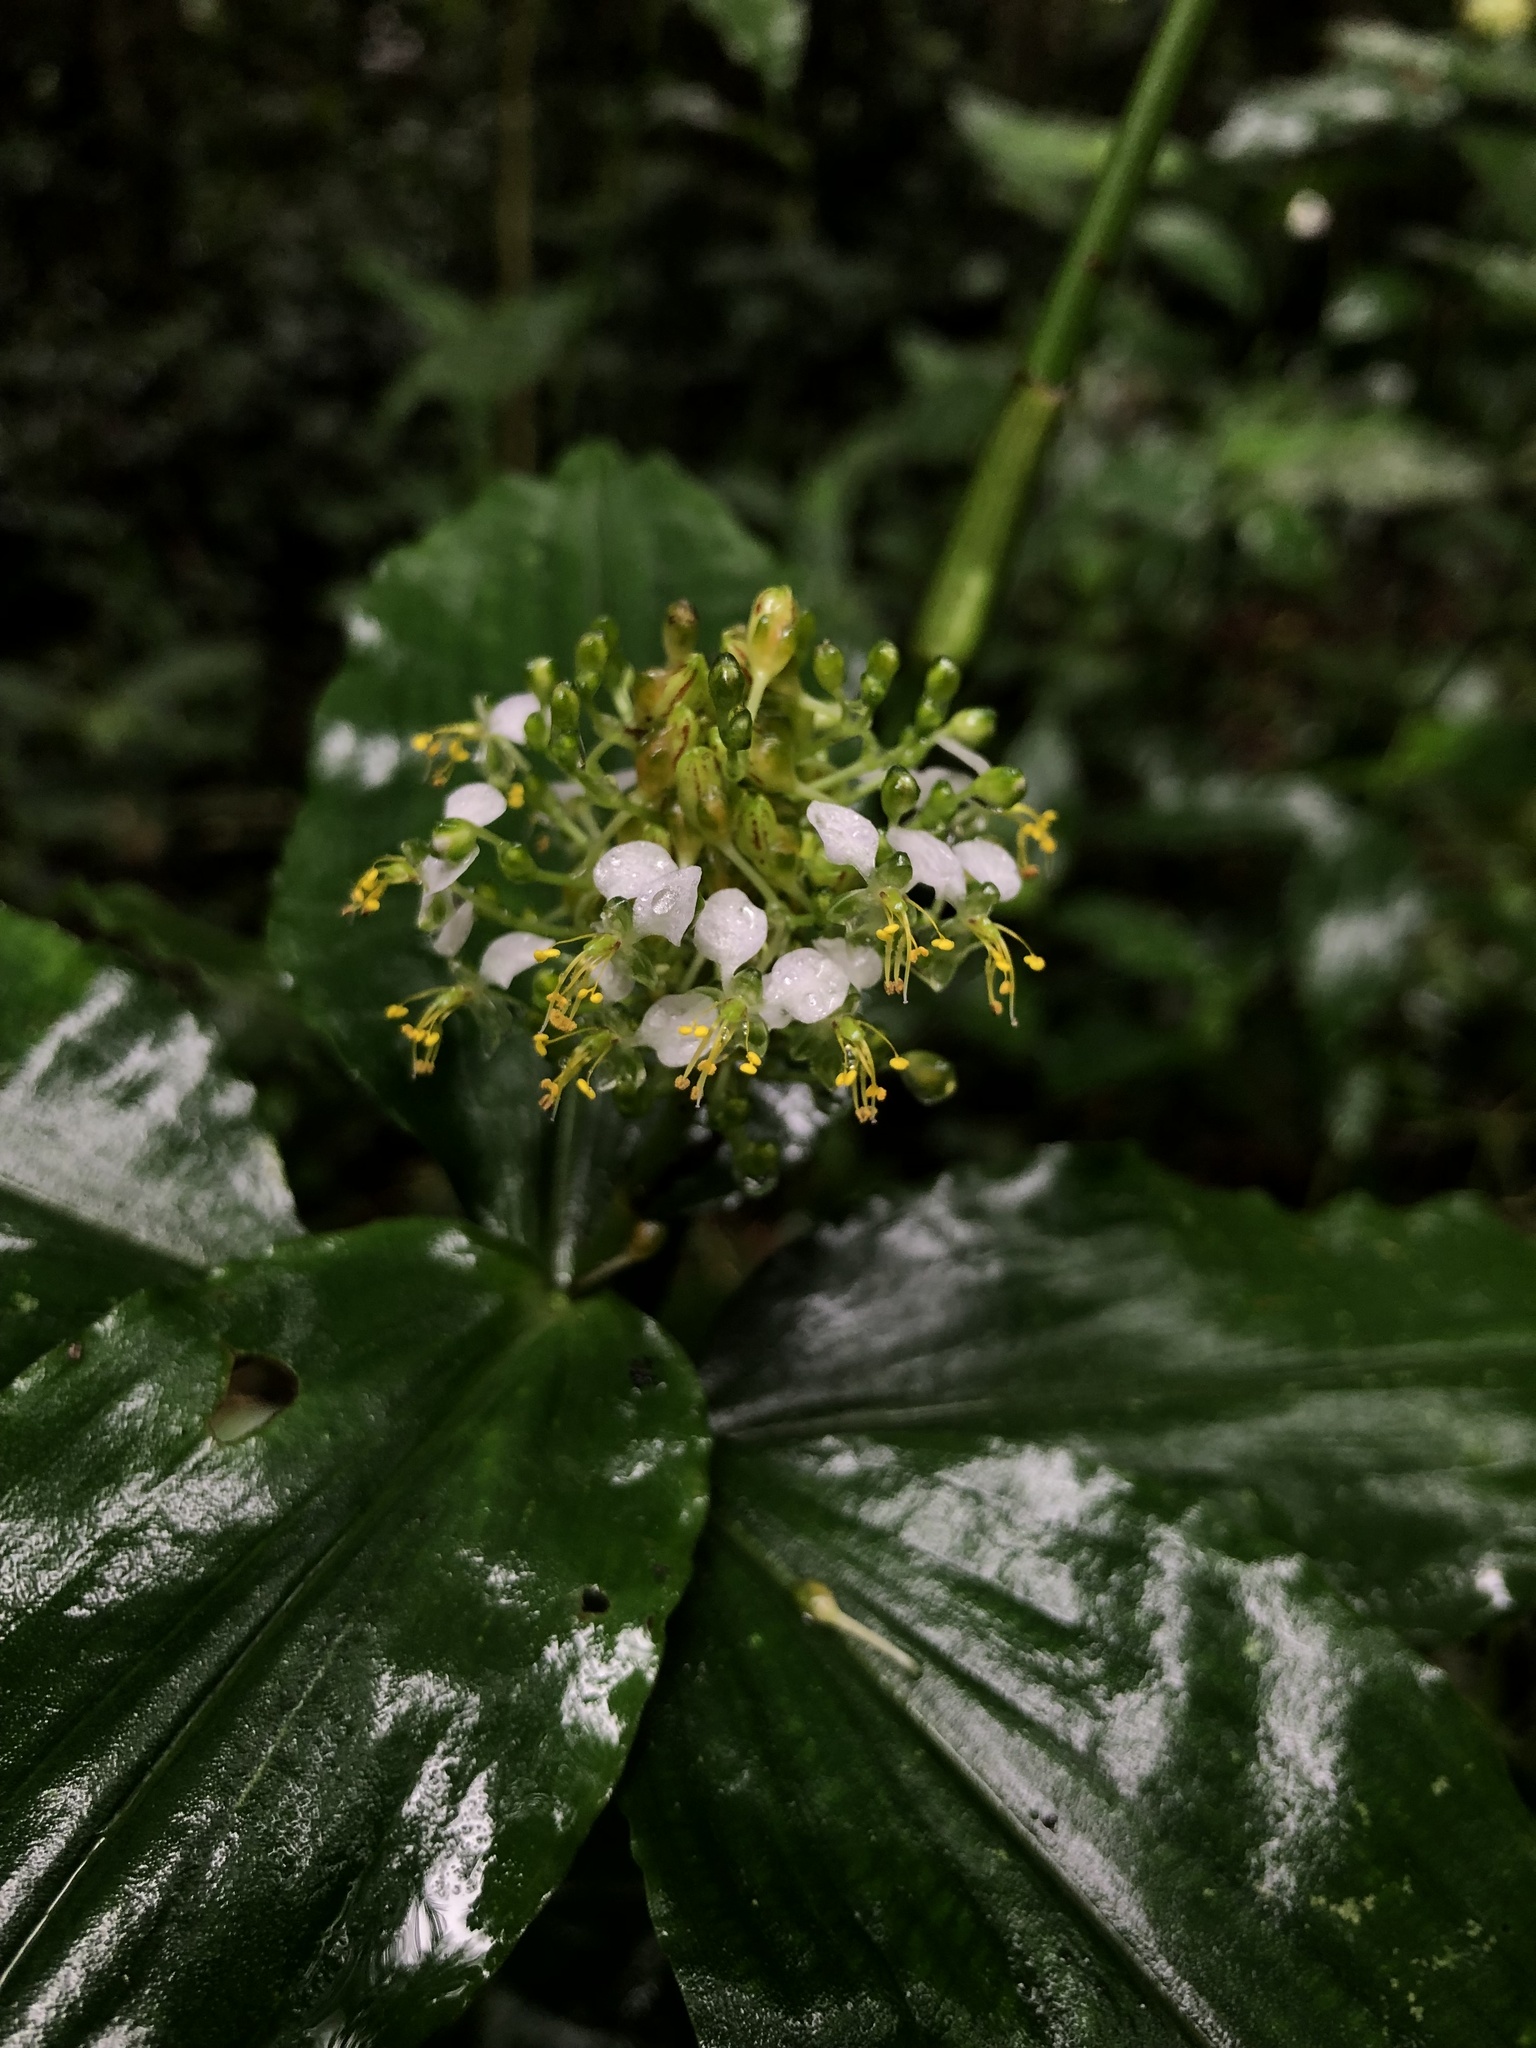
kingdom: Plantae
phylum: Tracheophyta
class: Liliopsida
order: Commelinales
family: Commelinaceae
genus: Aneilema
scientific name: Aneilema umbrosum
